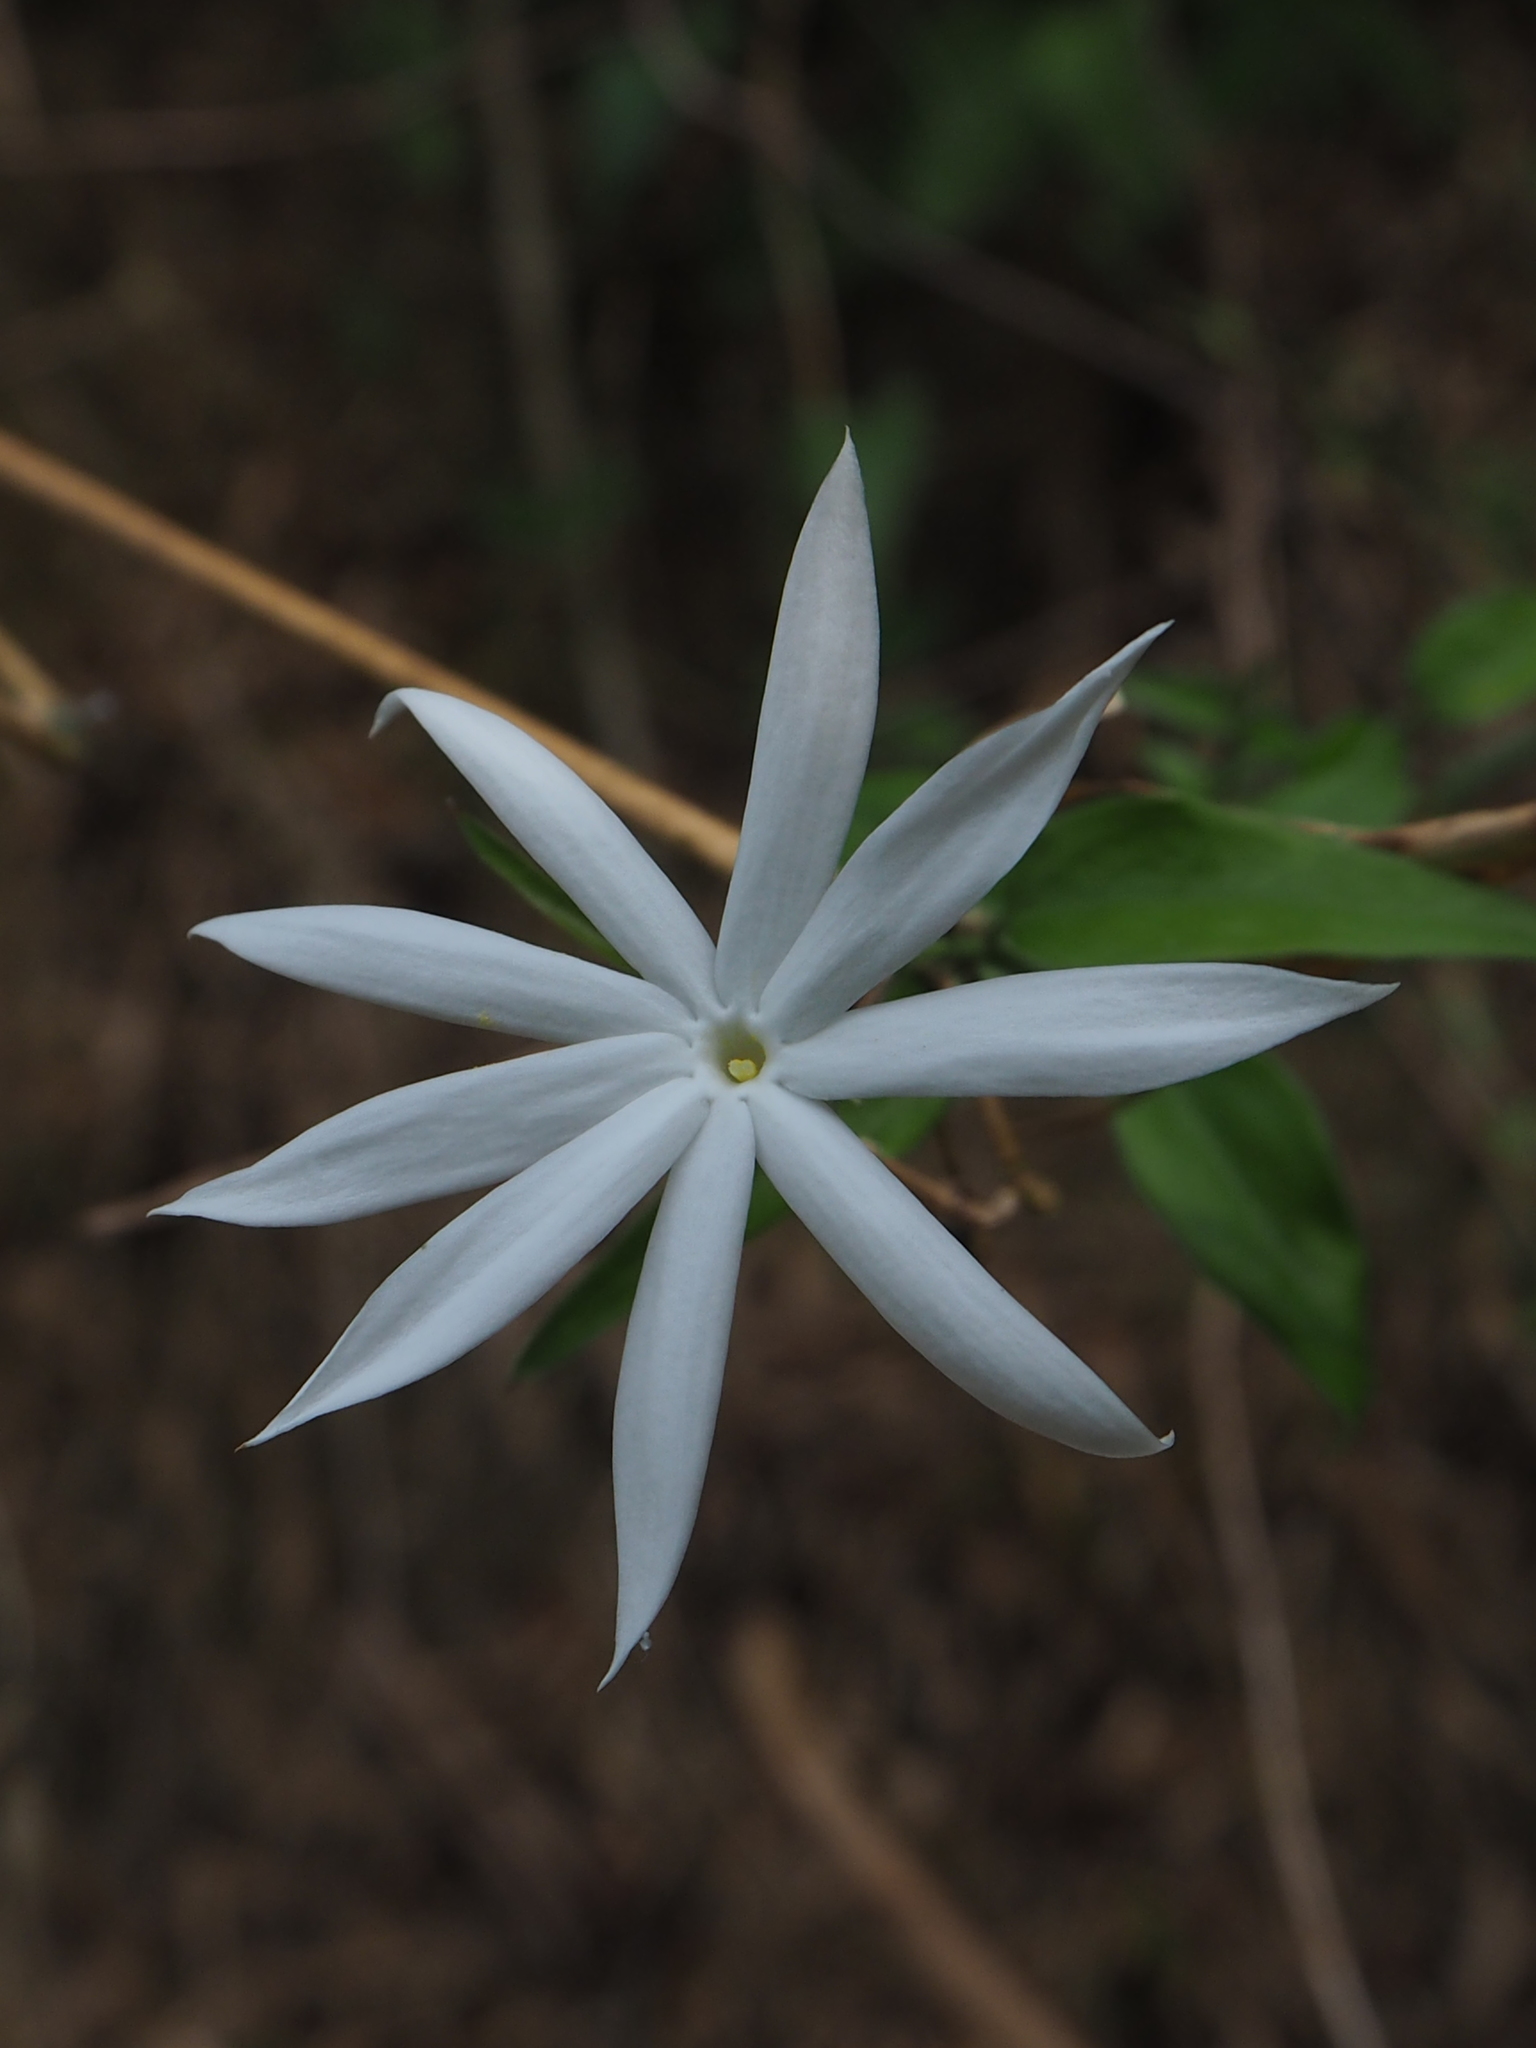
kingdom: Plantae
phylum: Tracheophyta
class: Magnoliopsida
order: Lamiales
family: Oleaceae
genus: Jasminum
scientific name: Jasminum nervosum
